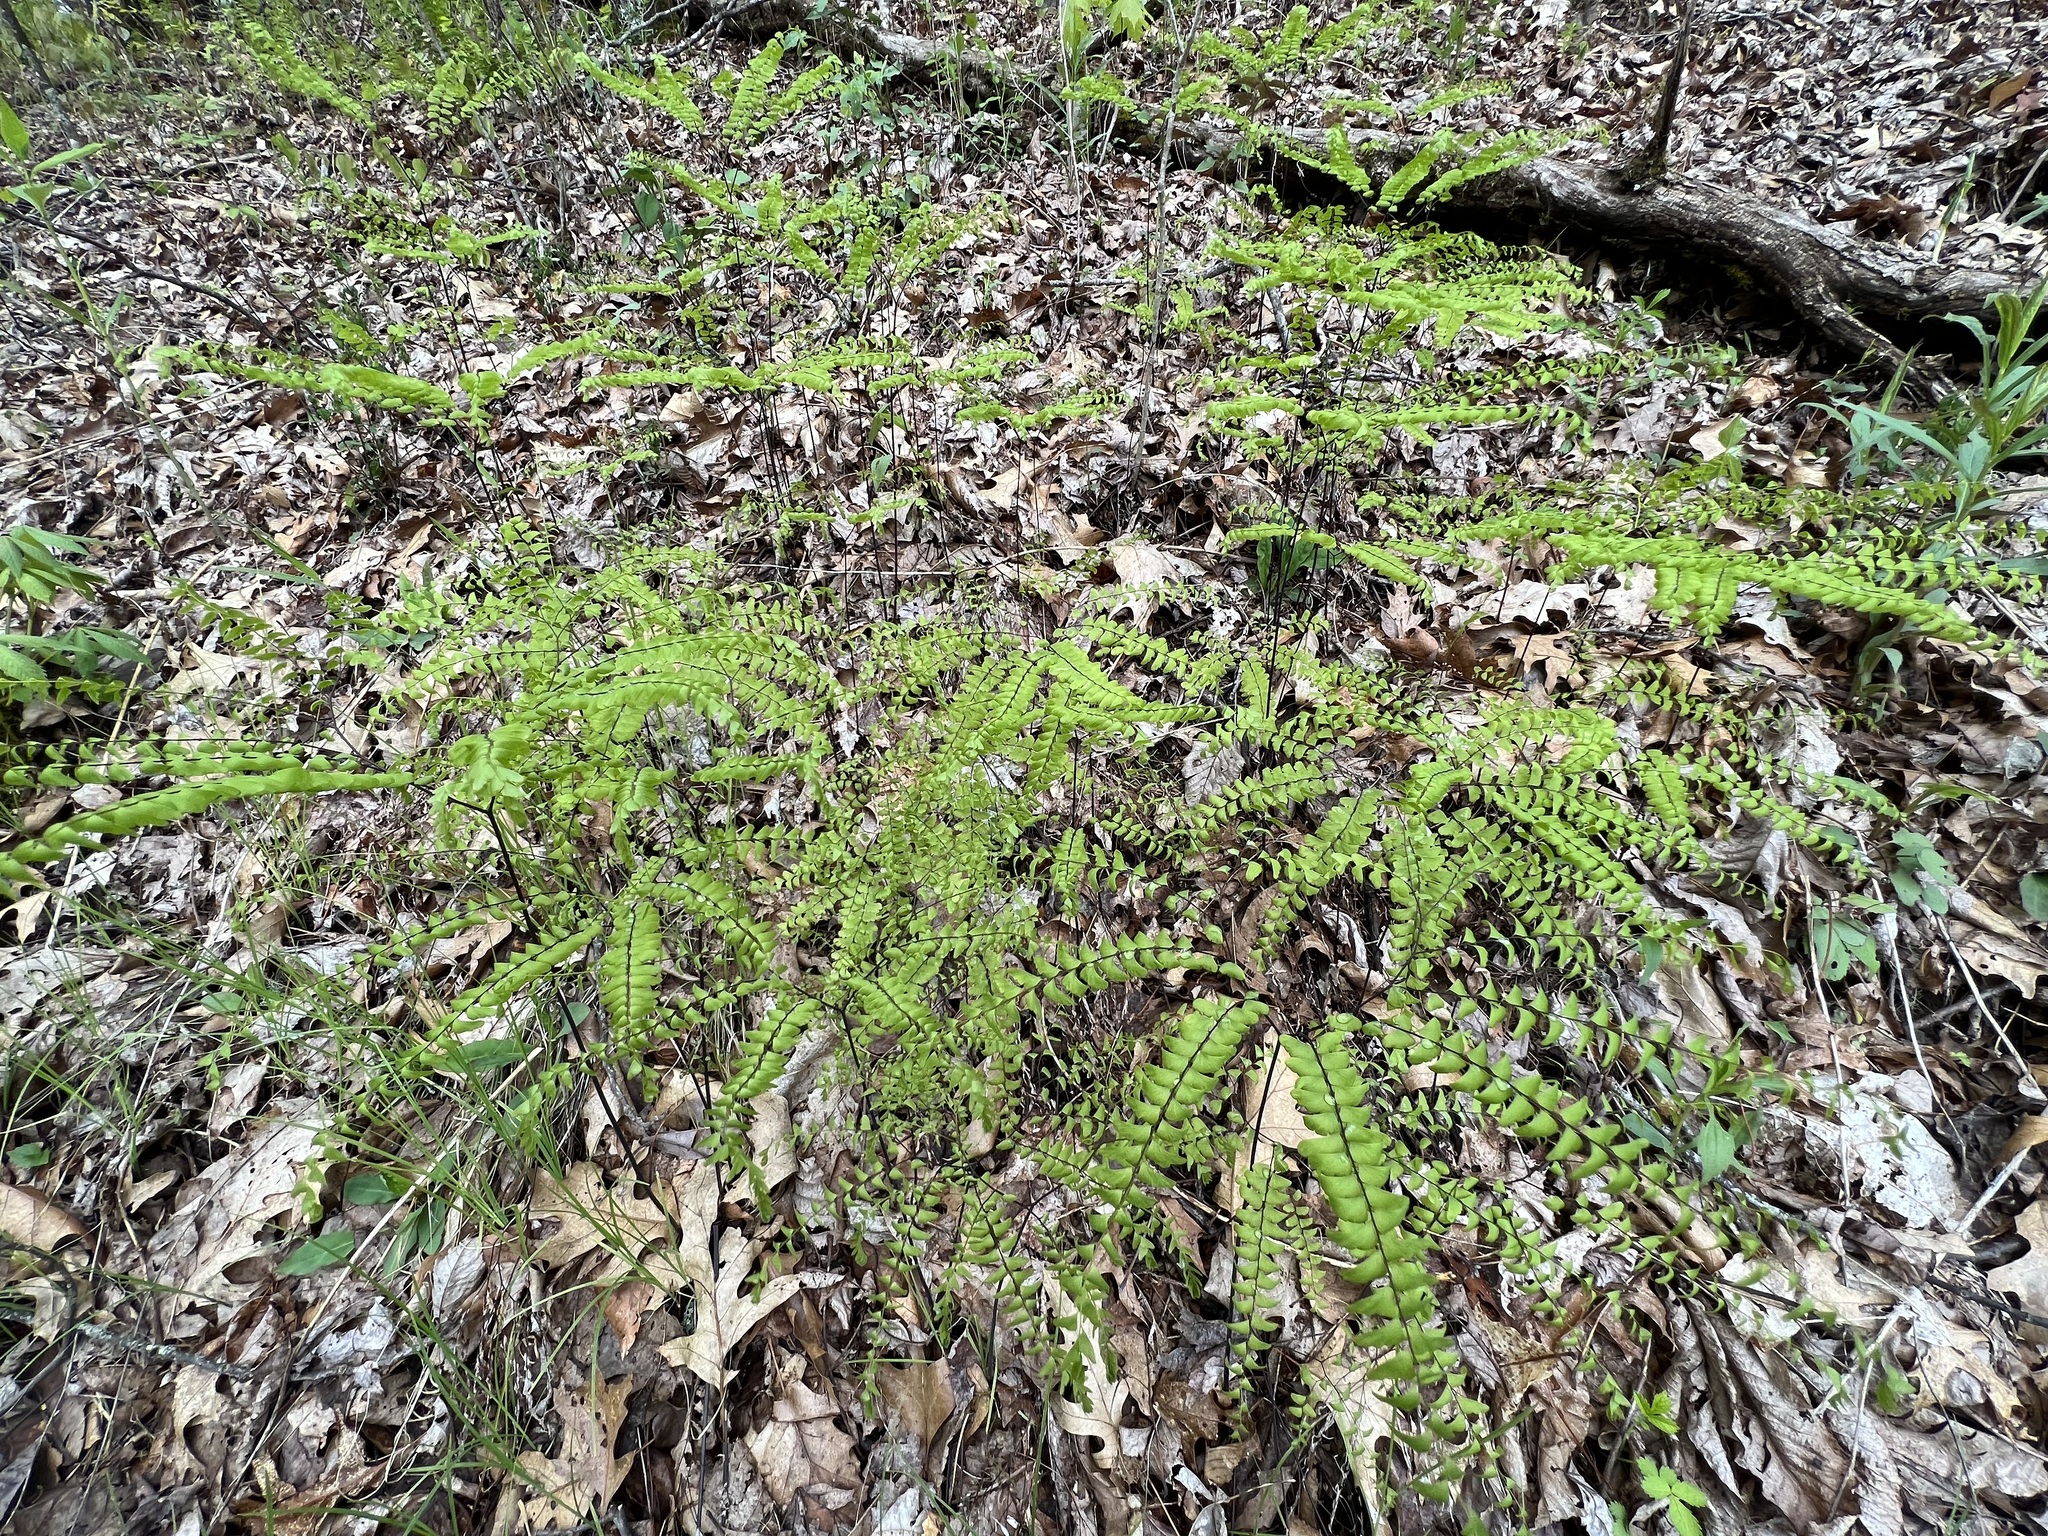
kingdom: Plantae
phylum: Tracheophyta
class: Polypodiopsida
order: Polypodiales
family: Pteridaceae
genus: Adiantum
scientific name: Adiantum pedatum
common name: Five-finger fern
